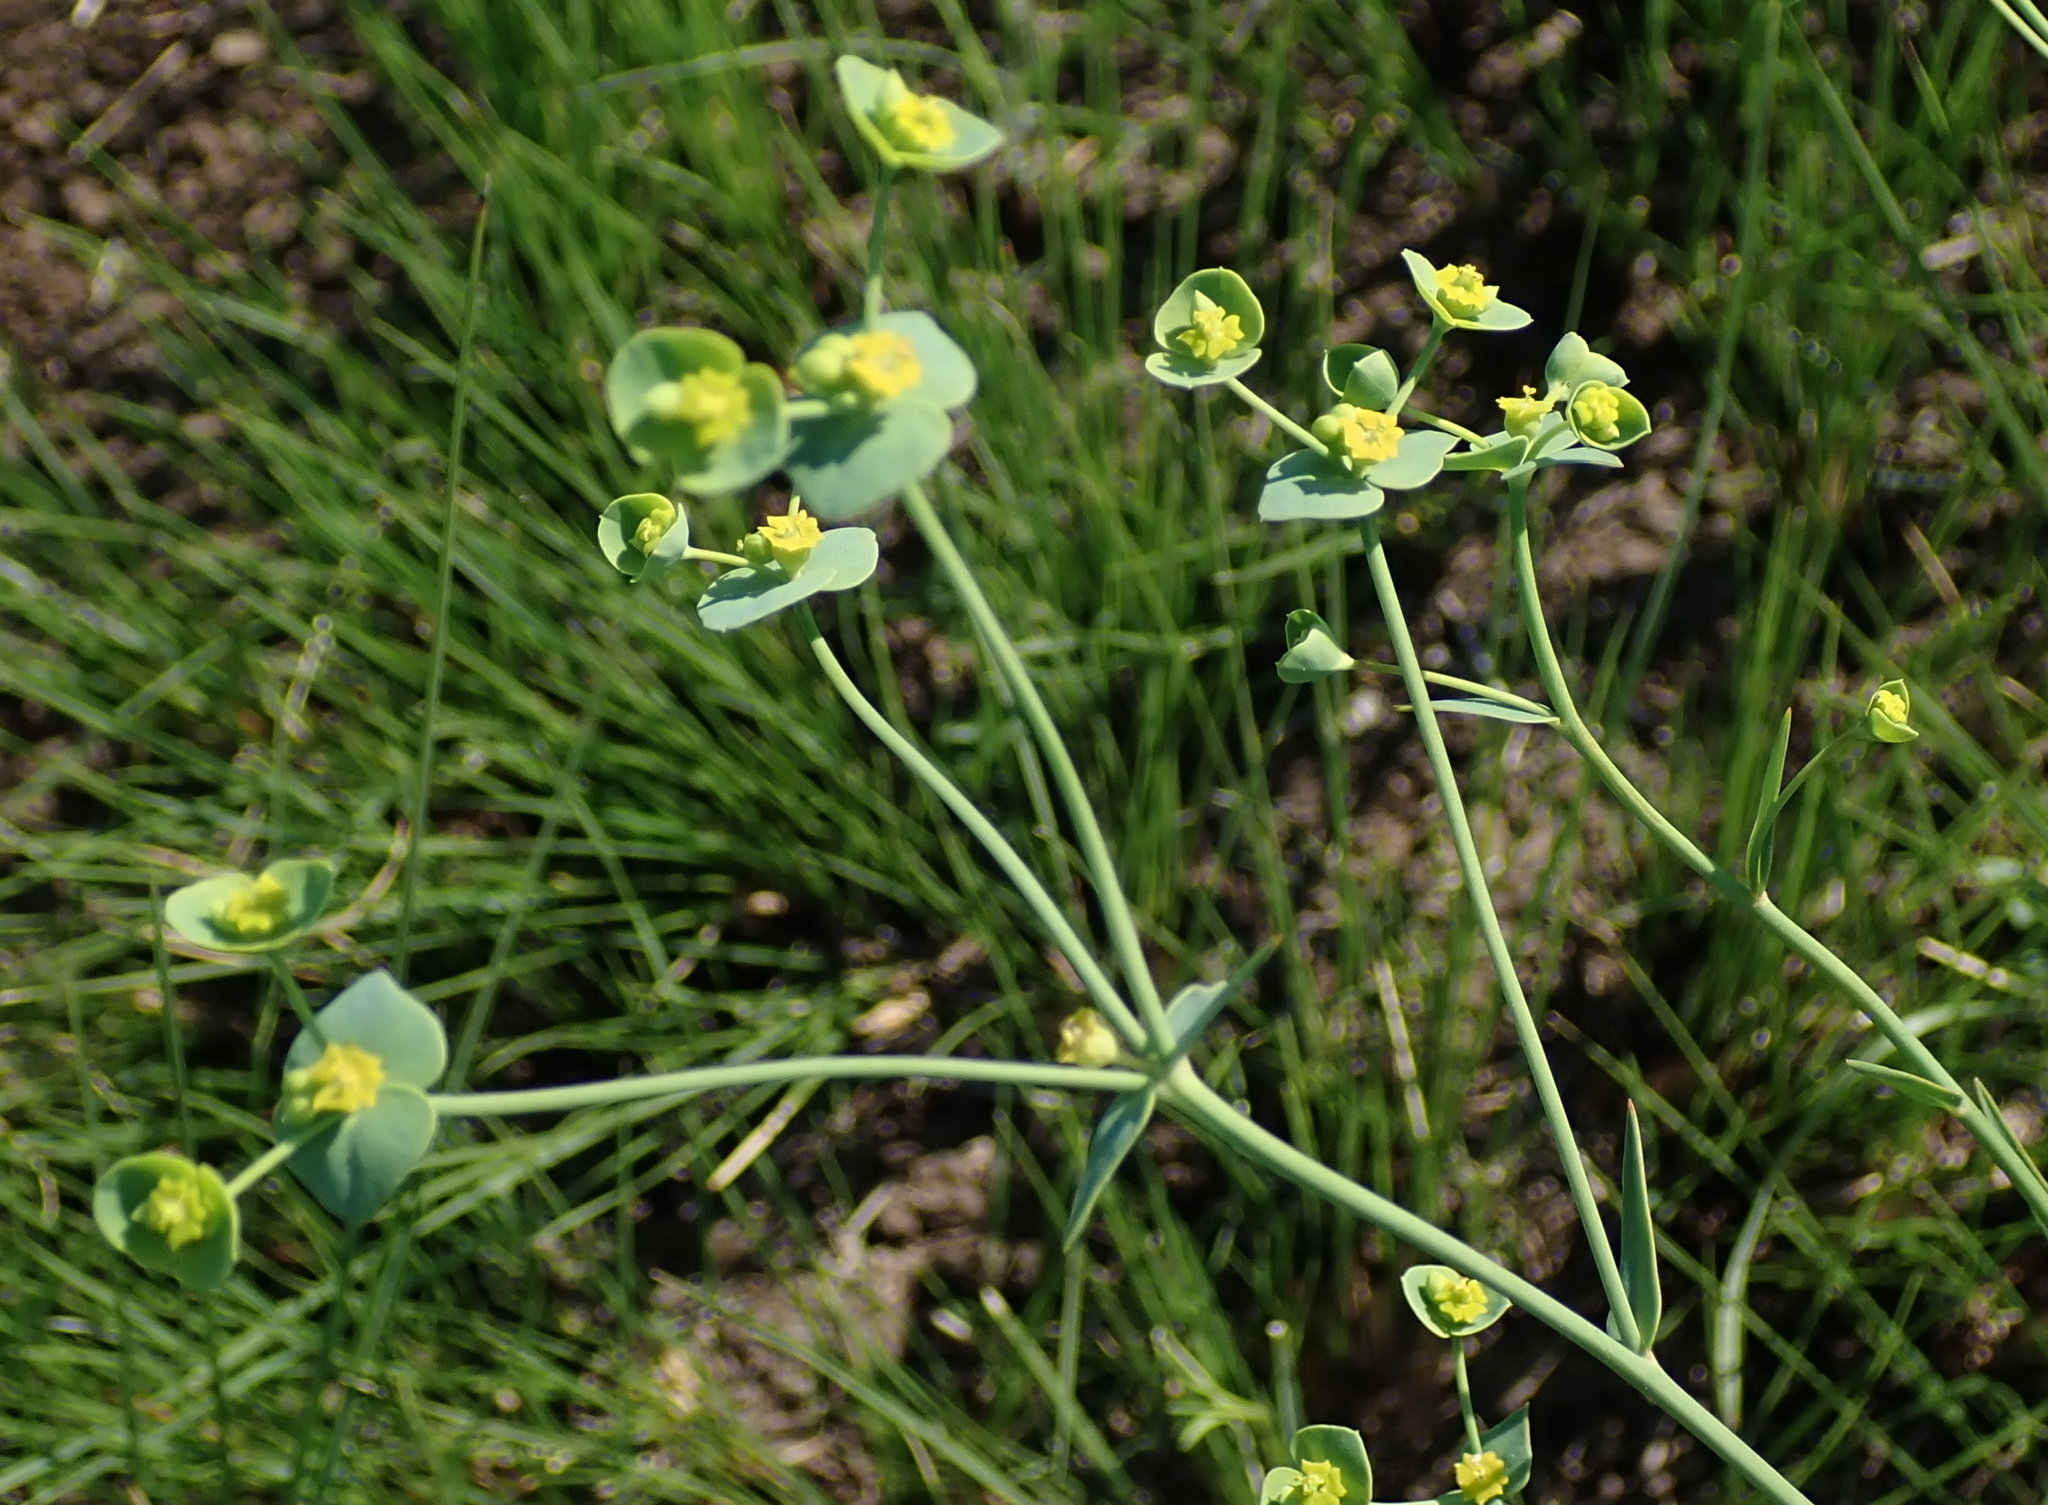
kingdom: Plantae
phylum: Tracheophyta
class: Magnoliopsida
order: Malpighiales
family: Euphorbiaceae
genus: Euphorbia
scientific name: Euphorbia striata
